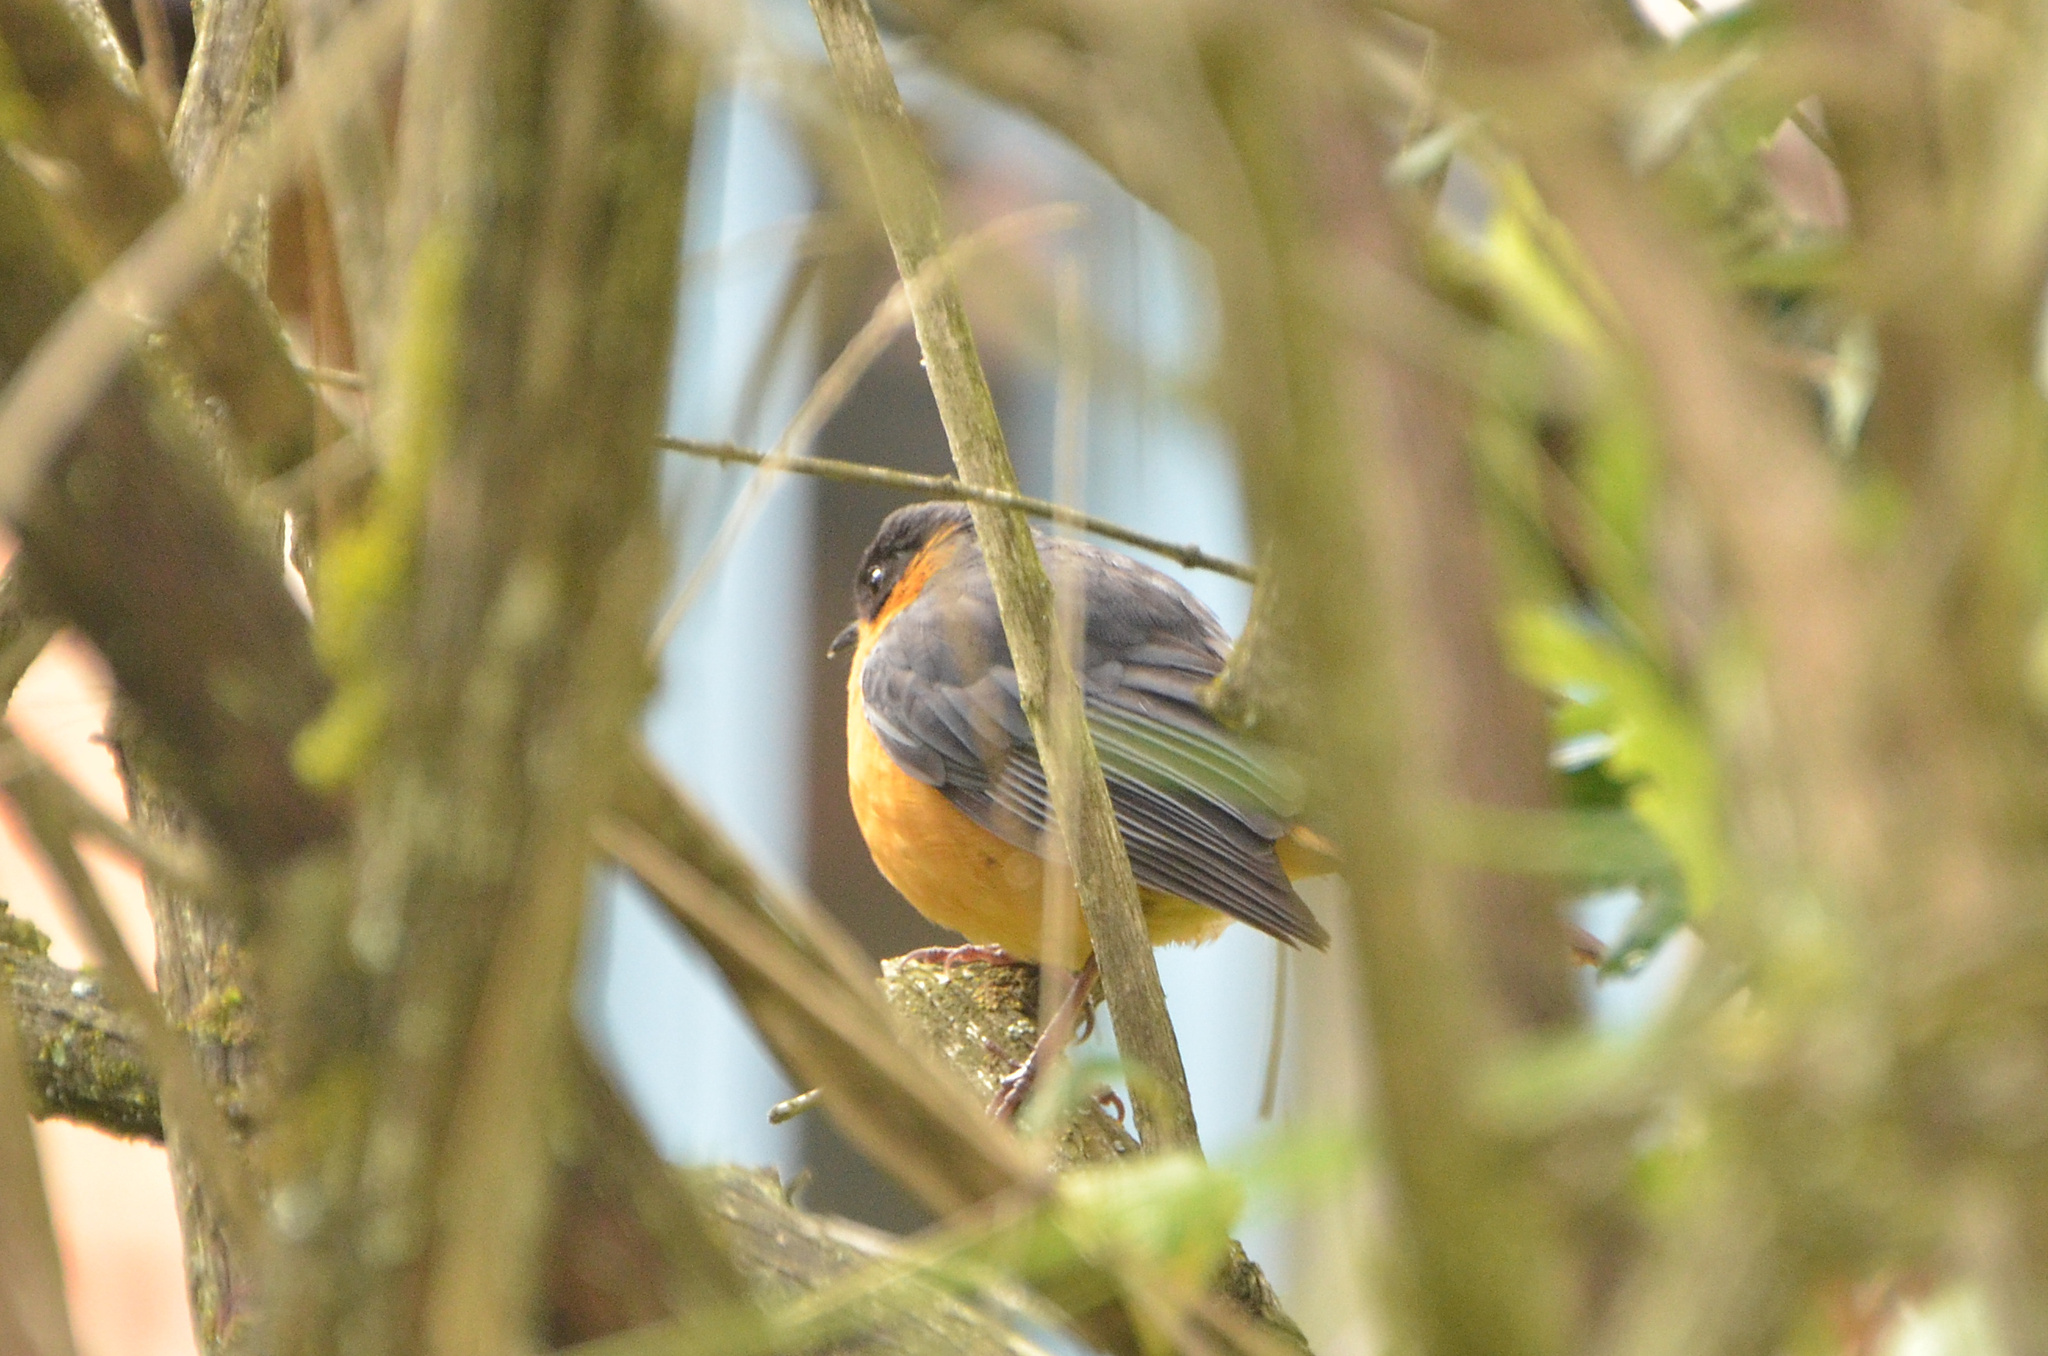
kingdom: Animalia
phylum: Chordata
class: Aves
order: Passeriformes
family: Muscicapidae
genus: Cossypha
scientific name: Cossypha dichroa
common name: Chorister robin-chat
